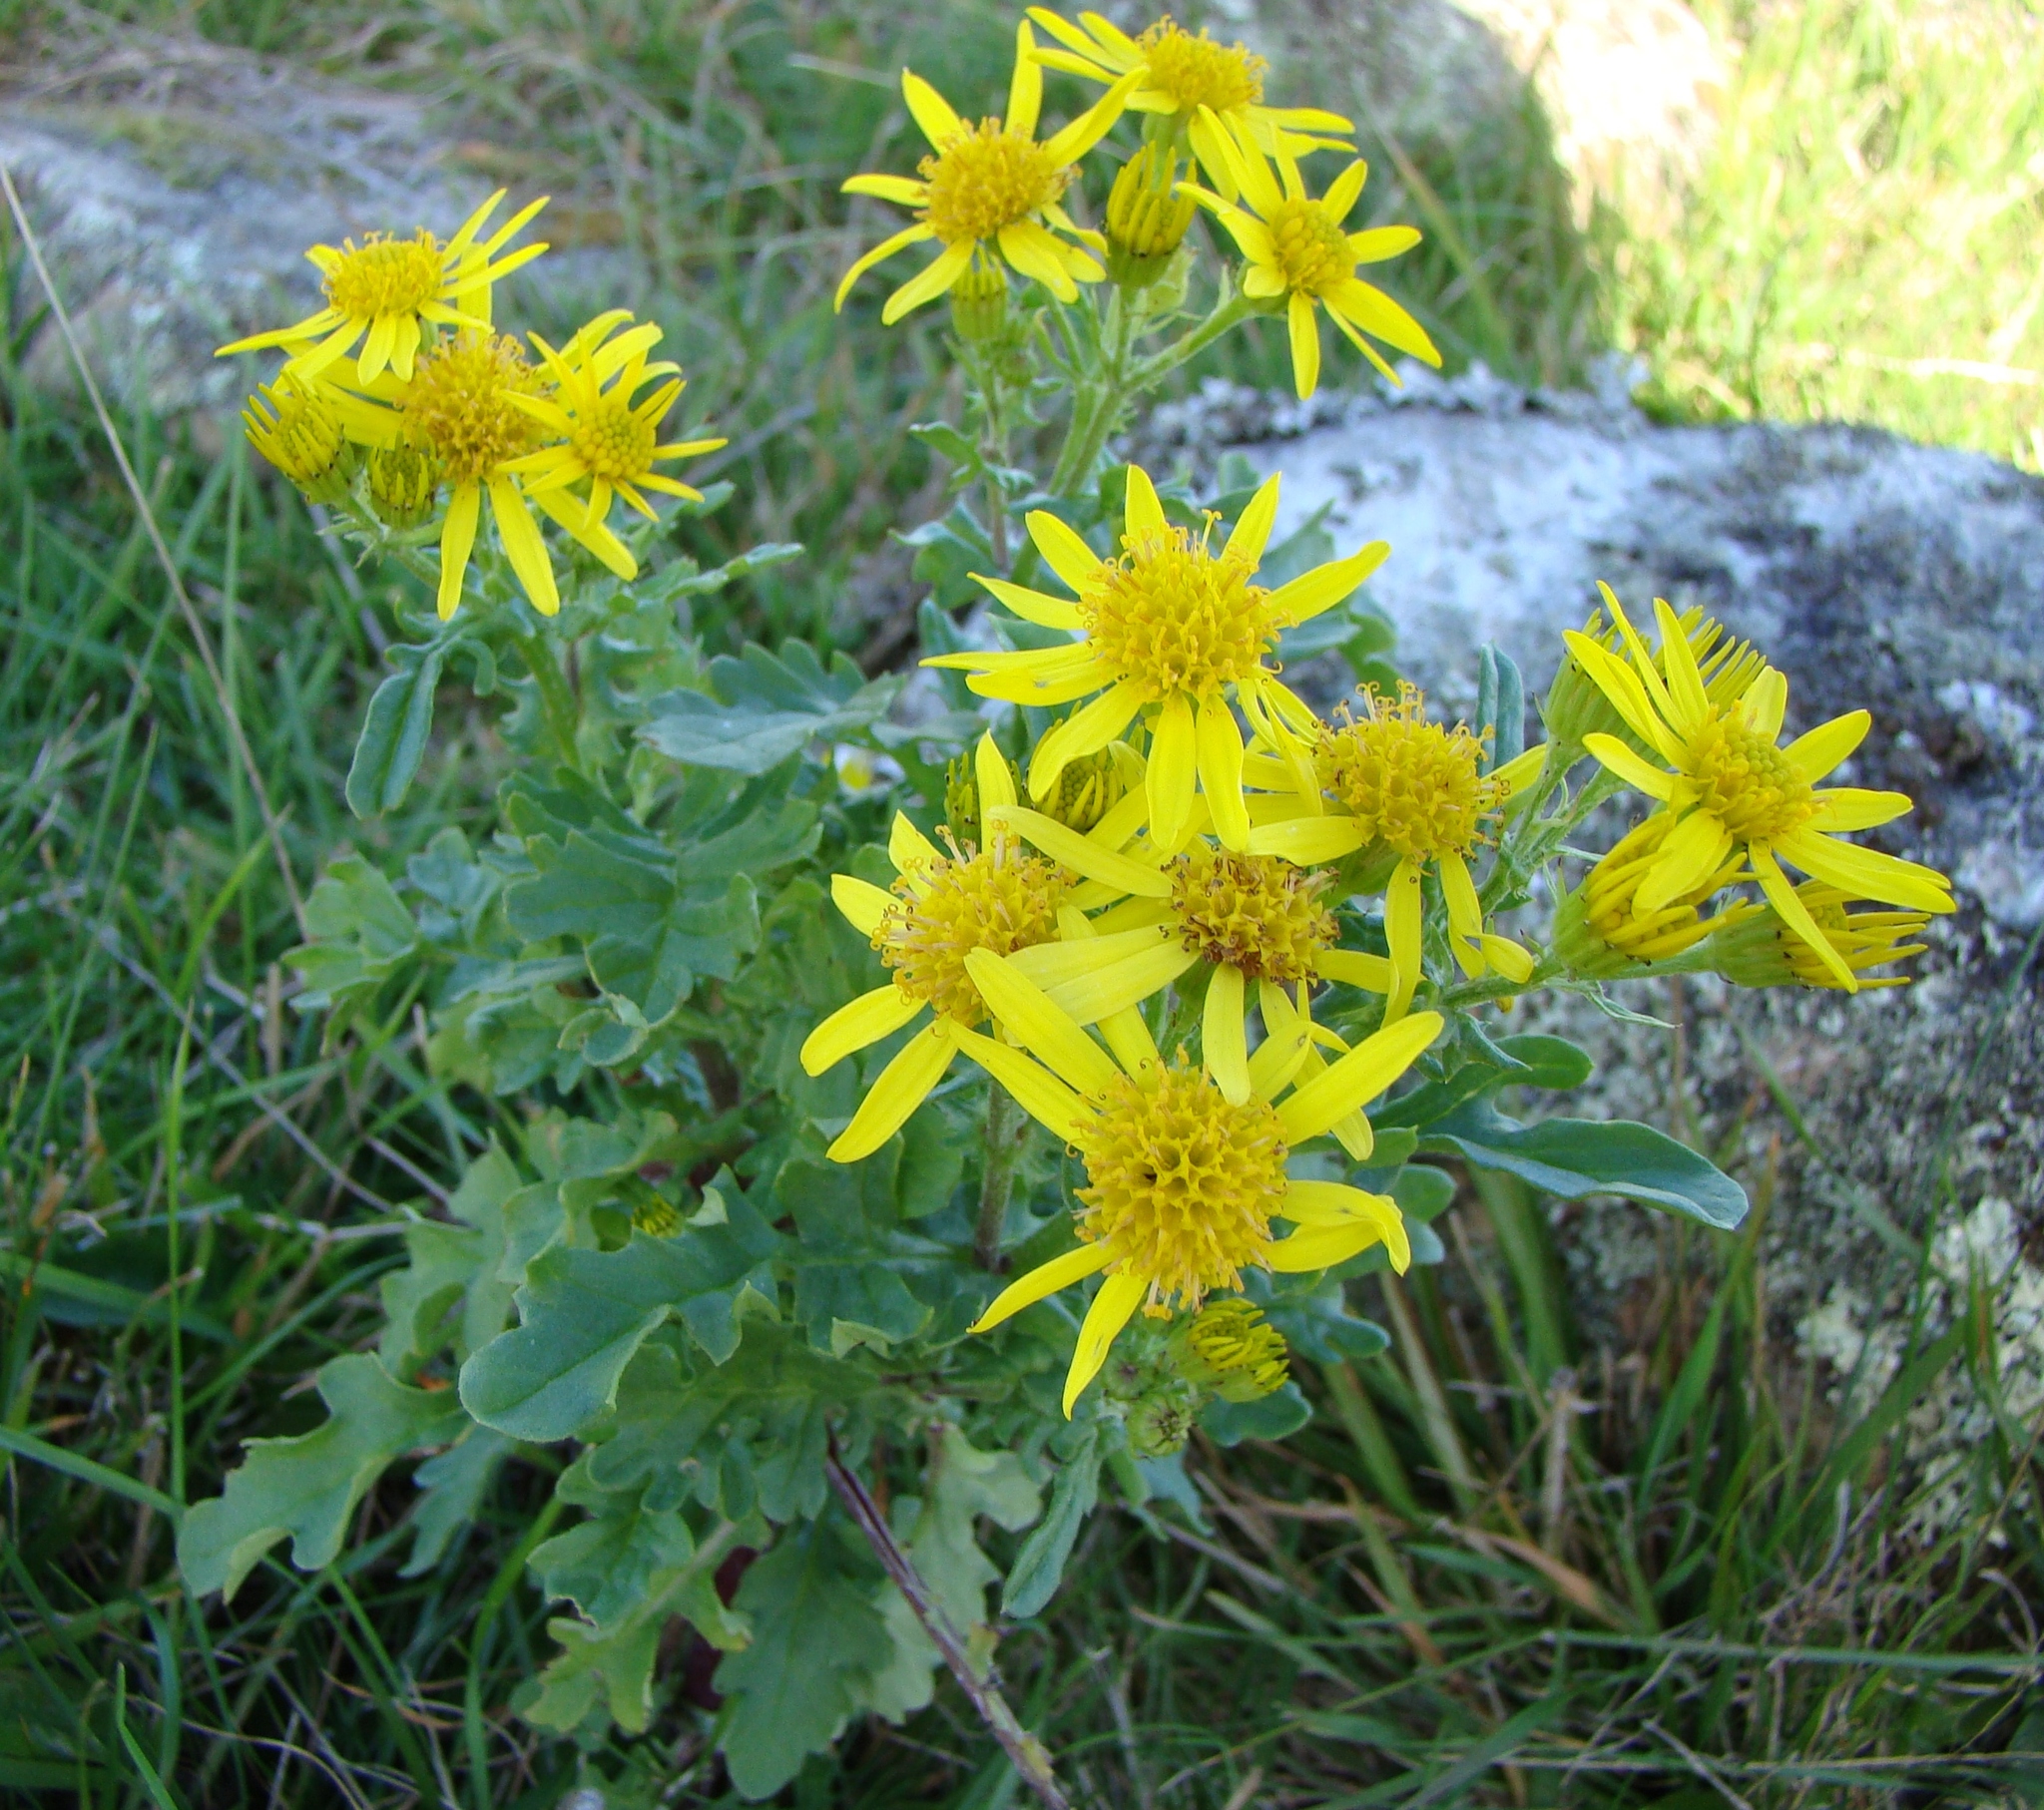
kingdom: Plantae
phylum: Tracheophyta
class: Magnoliopsida
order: Asterales
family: Asteraceae
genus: Jacobaea
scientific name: Jacobaea vulgaris
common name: Stinking willie
